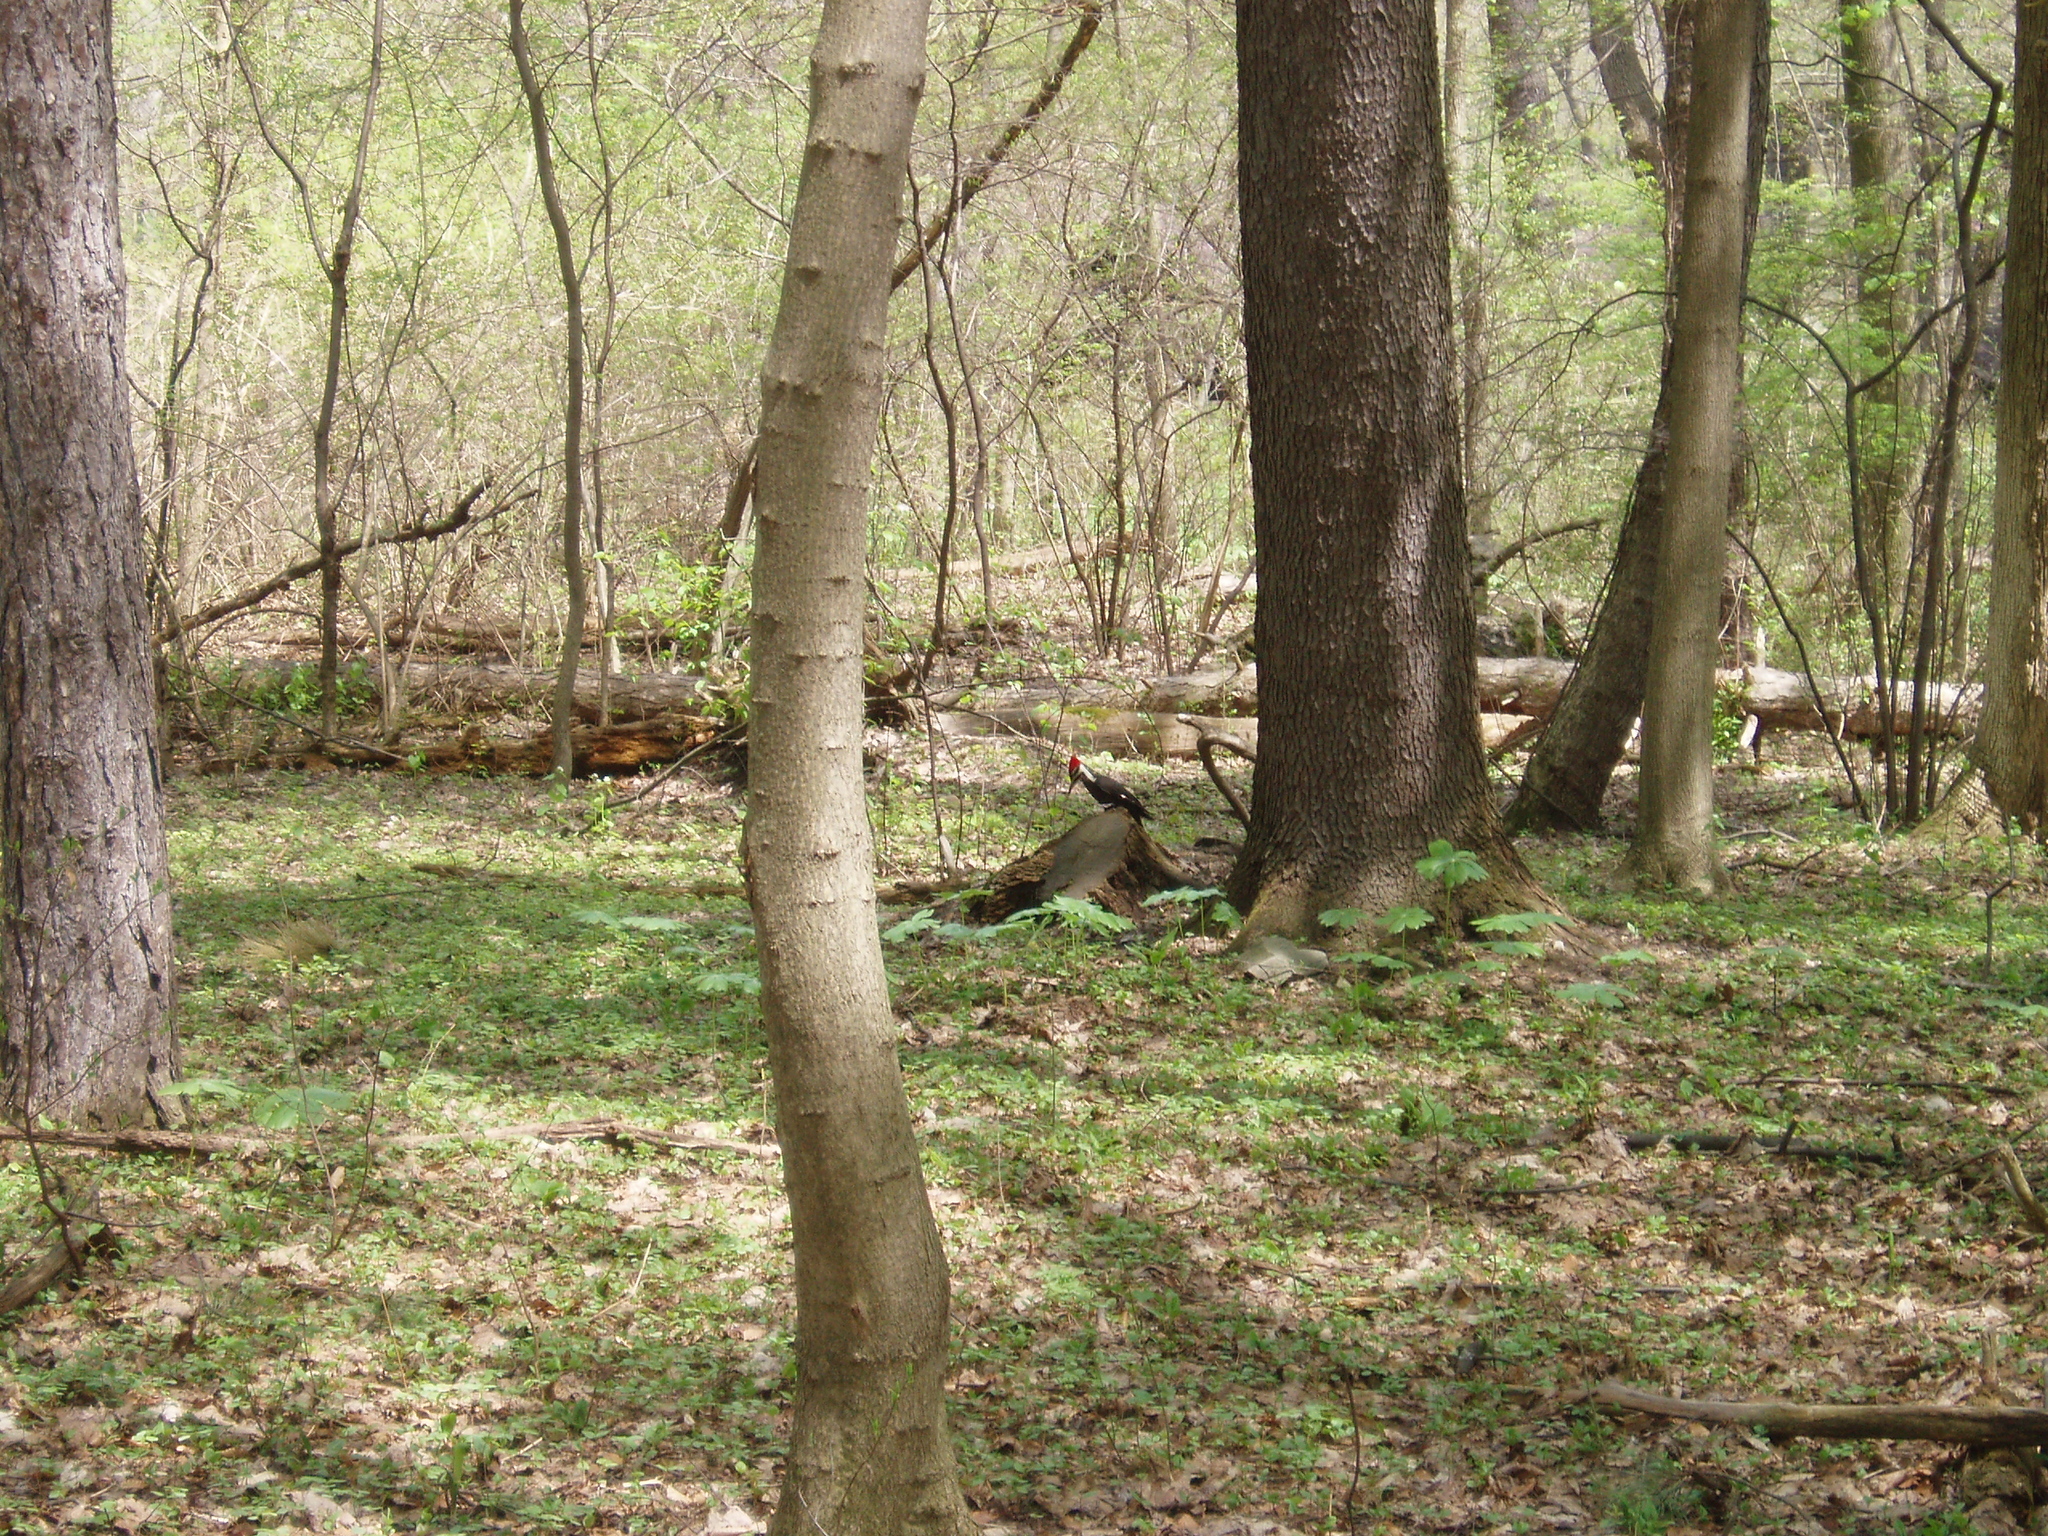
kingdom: Animalia
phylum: Chordata
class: Aves
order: Piciformes
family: Picidae
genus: Dryocopus
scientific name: Dryocopus pileatus
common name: Pileated woodpecker
